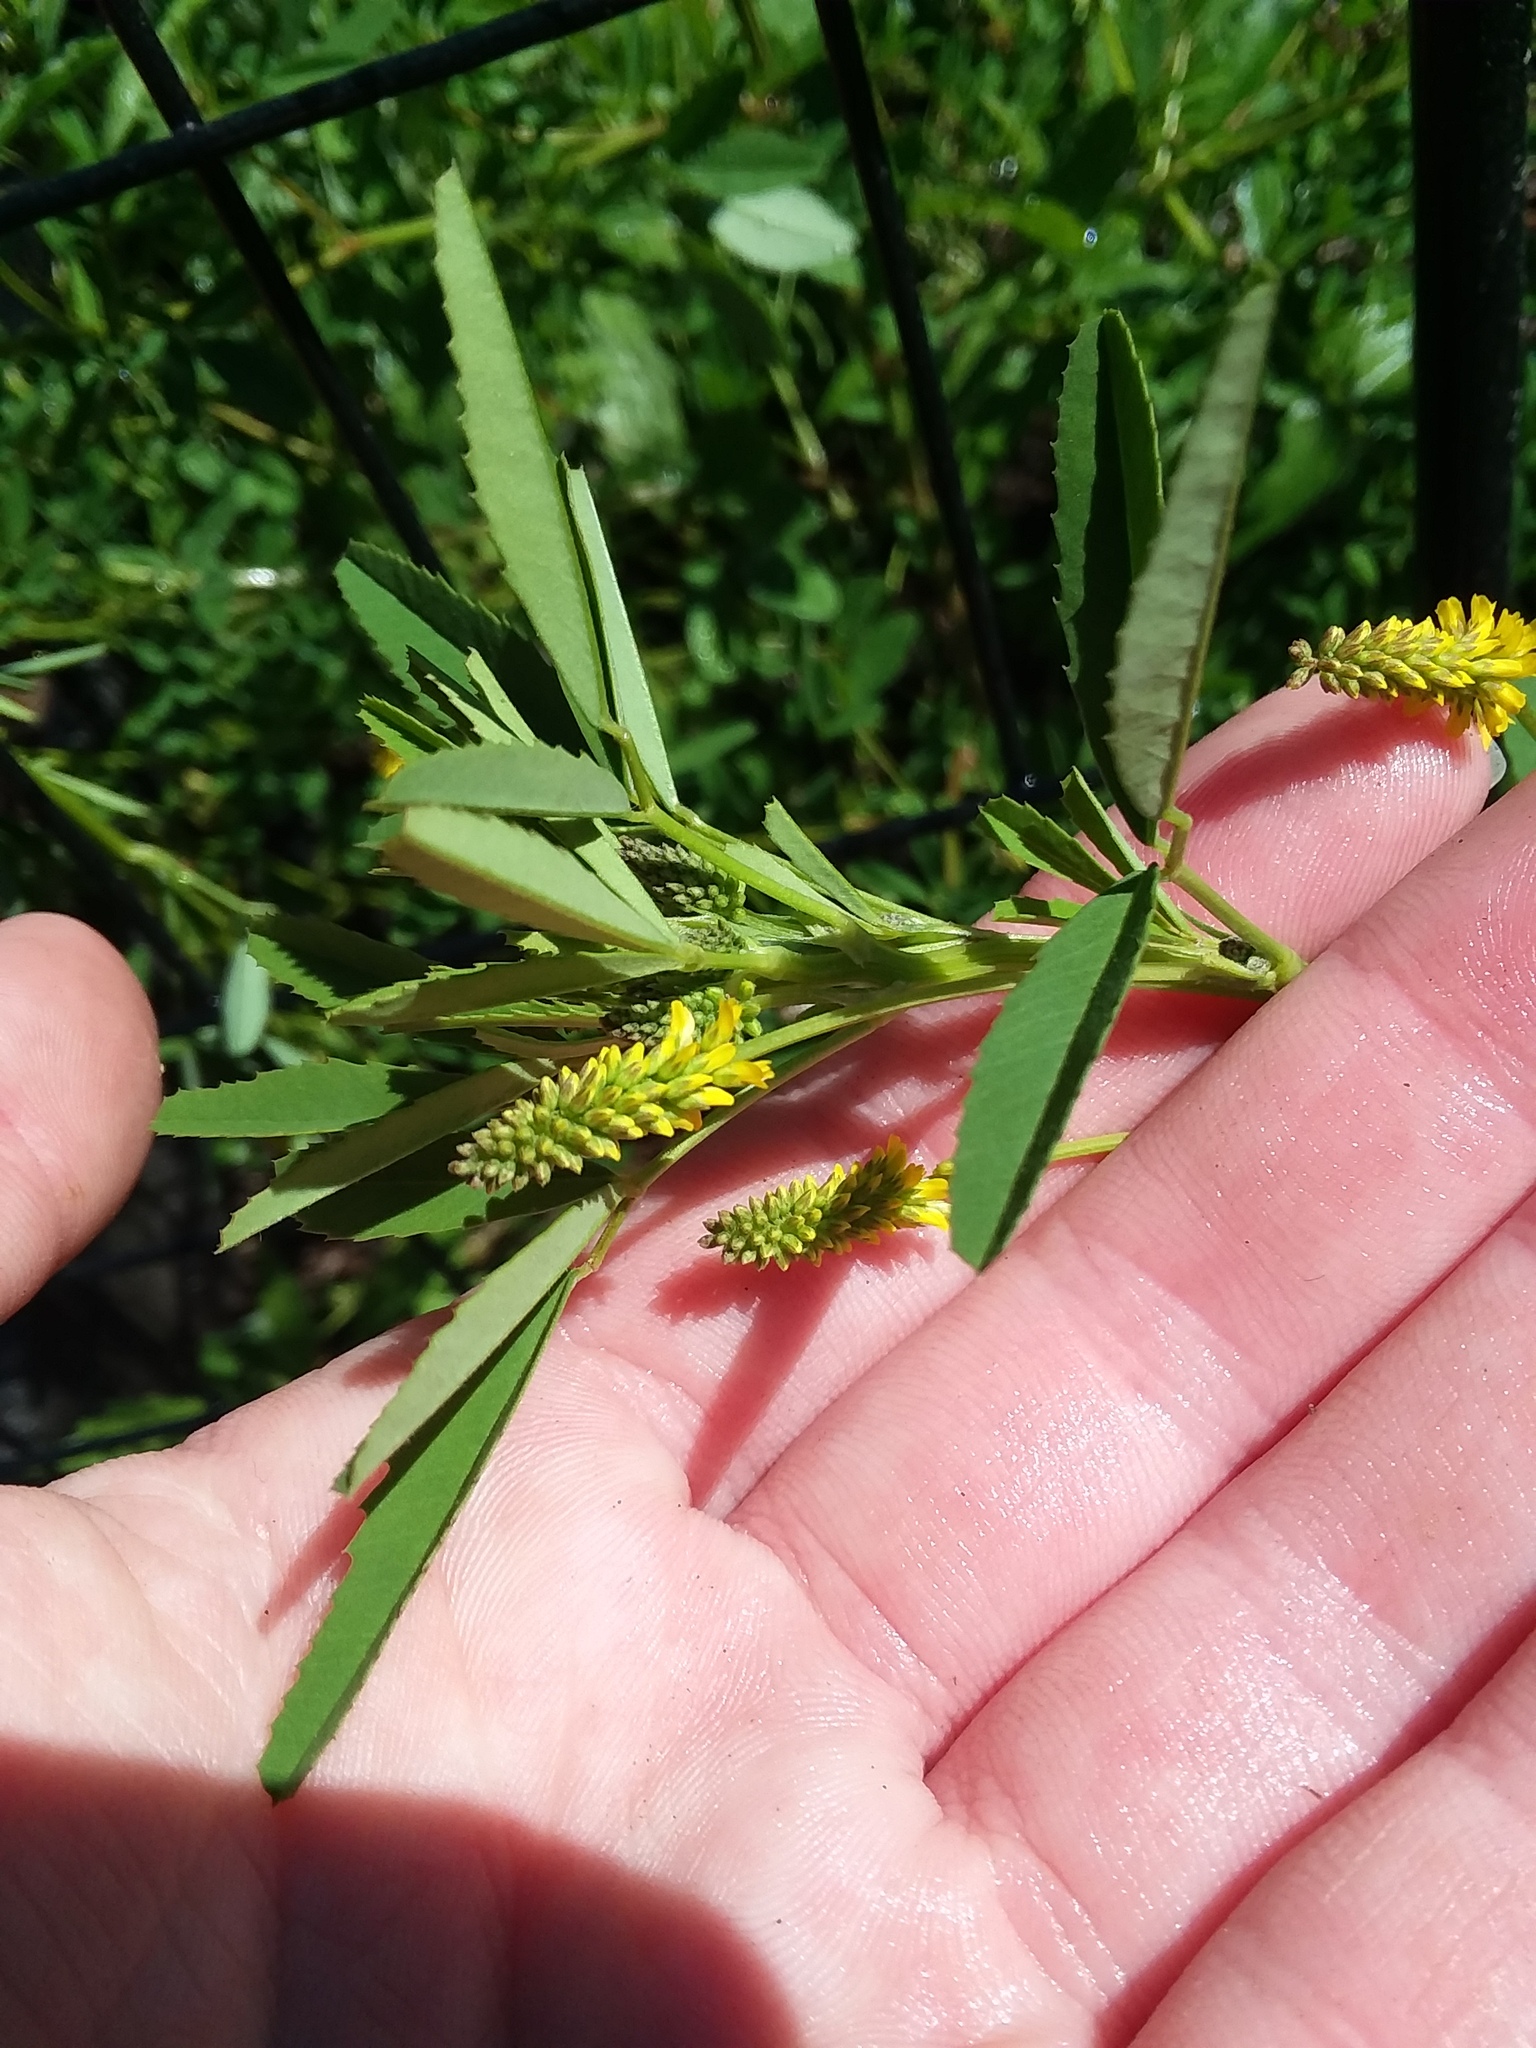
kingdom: Plantae
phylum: Tracheophyta
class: Magnoliopsida
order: Fabales
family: Fabaceae
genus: Melilotus
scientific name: Melilotus indicus
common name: Small melilot
